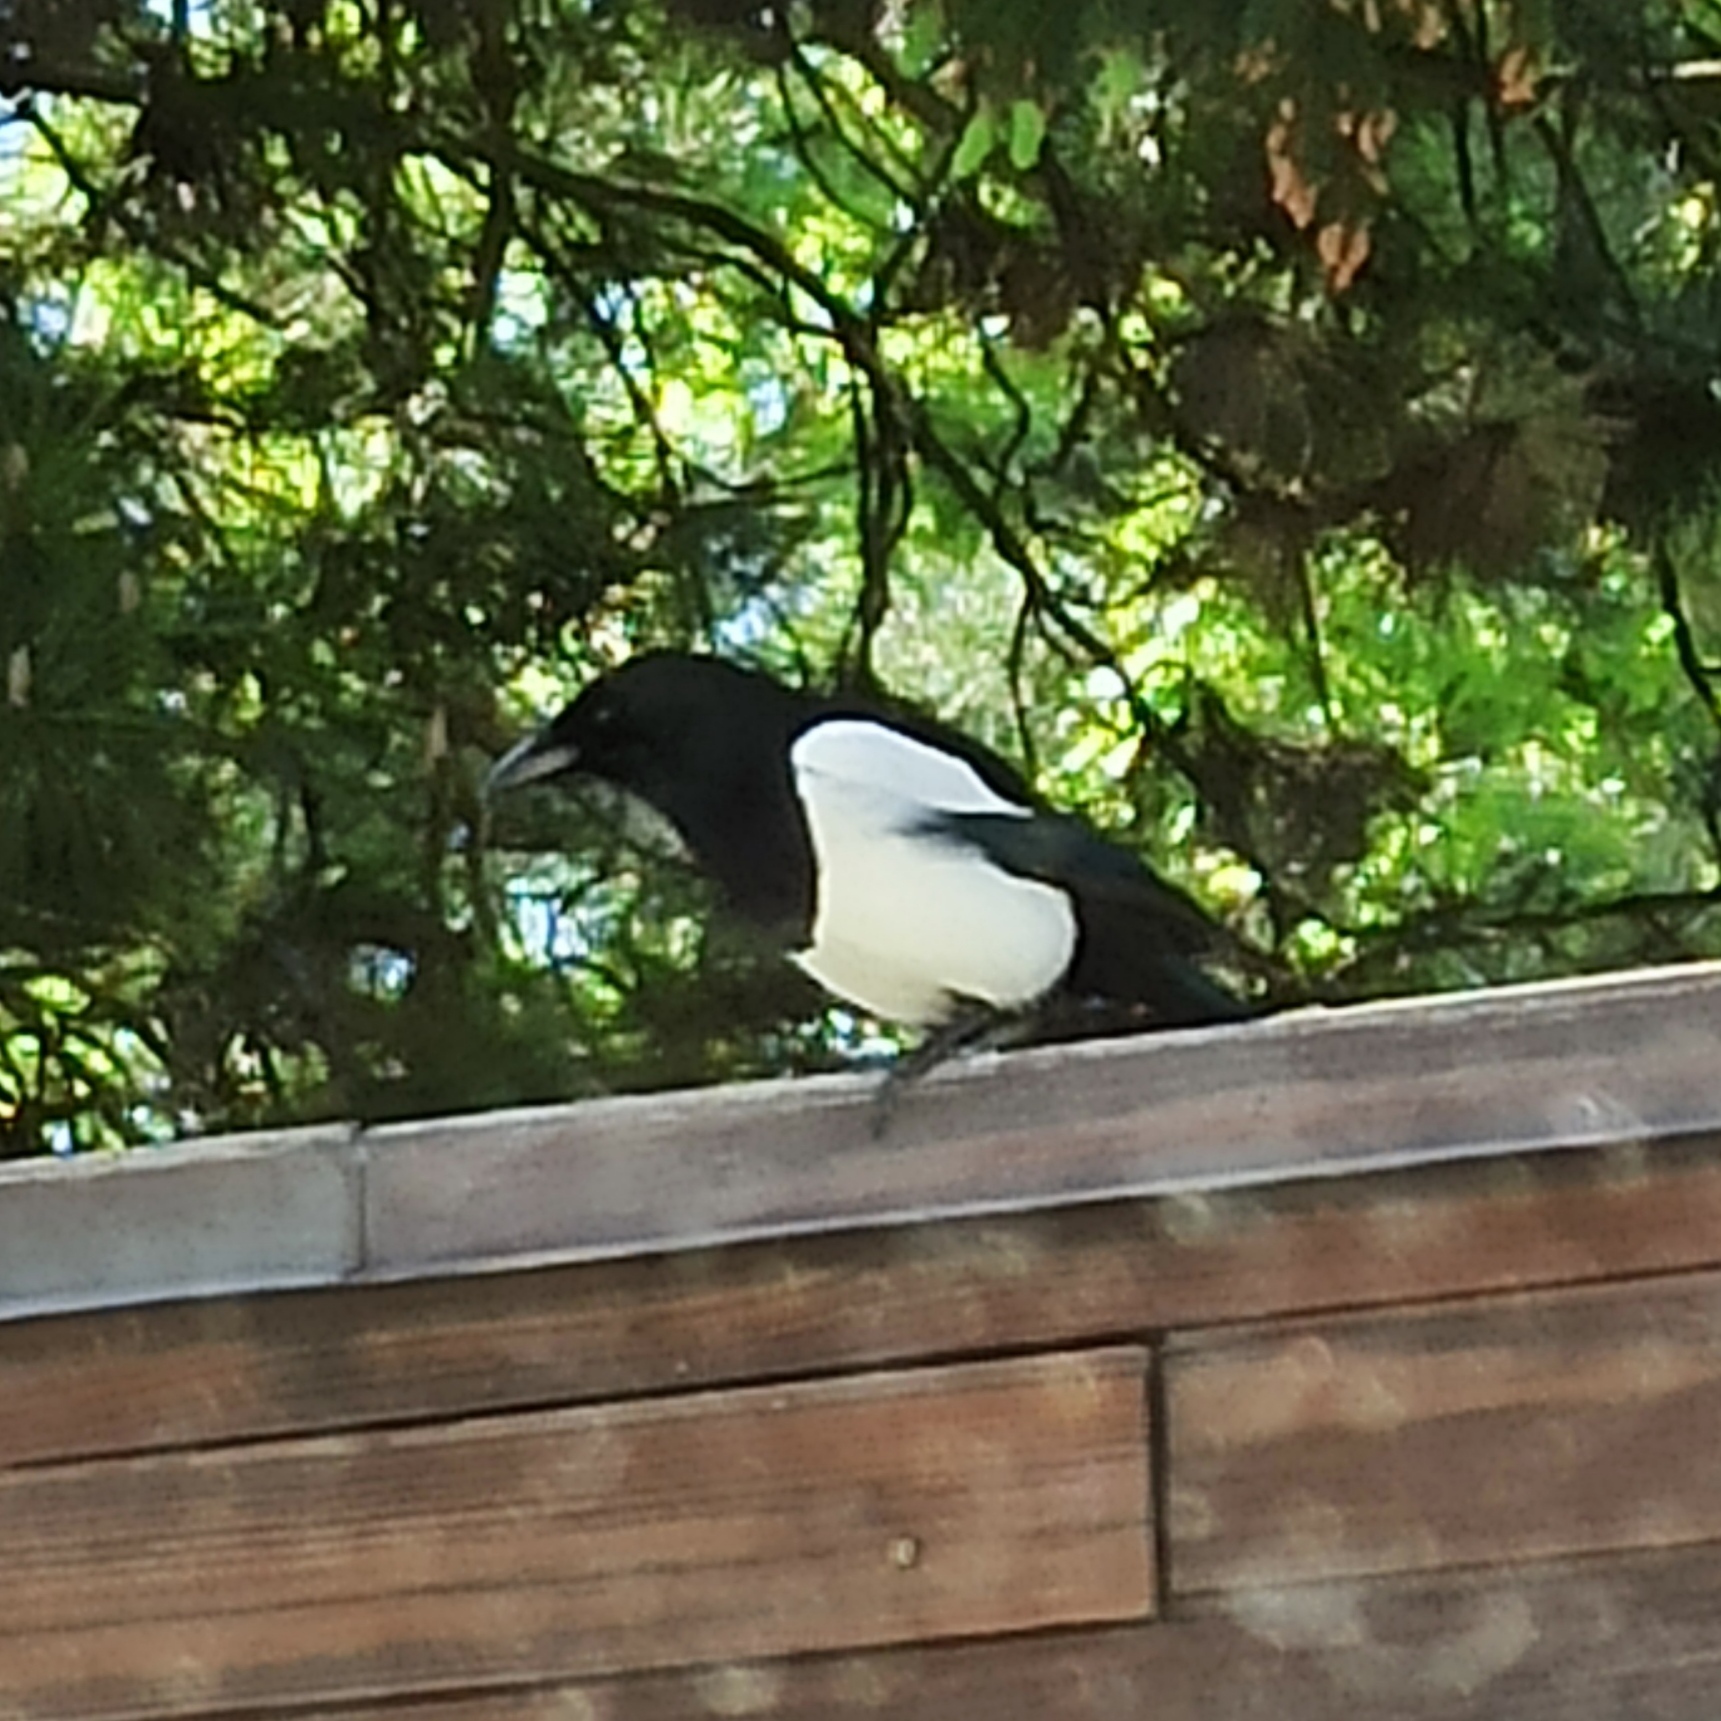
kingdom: Animalia
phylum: Chordata
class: Aves
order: Passeriformes
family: Corvidae
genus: Pica
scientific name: Pica pica
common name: Eurasian magpie
